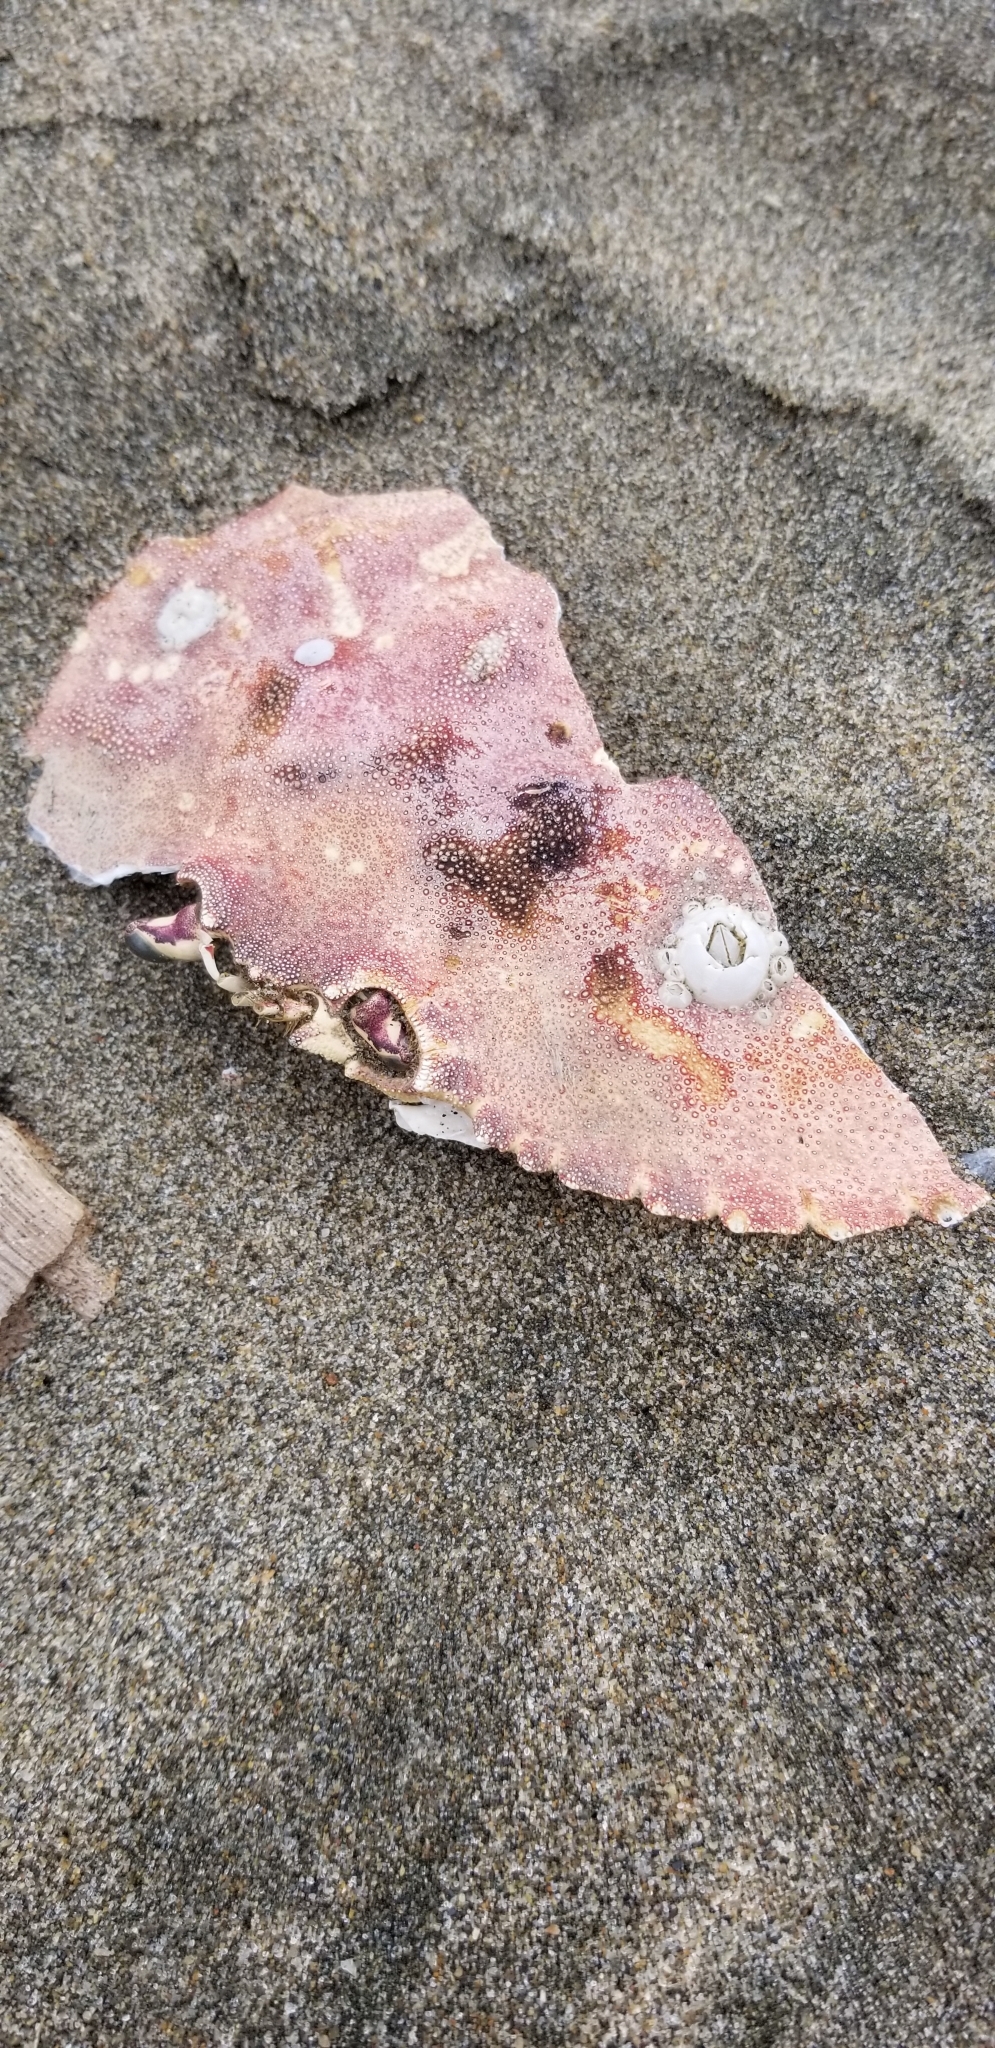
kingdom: Animalia
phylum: Arthropoda
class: Malacostraca
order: Decapoda
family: Cancridae
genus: Metacarcinus
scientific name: Metacarcinus magister
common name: Californian crab
